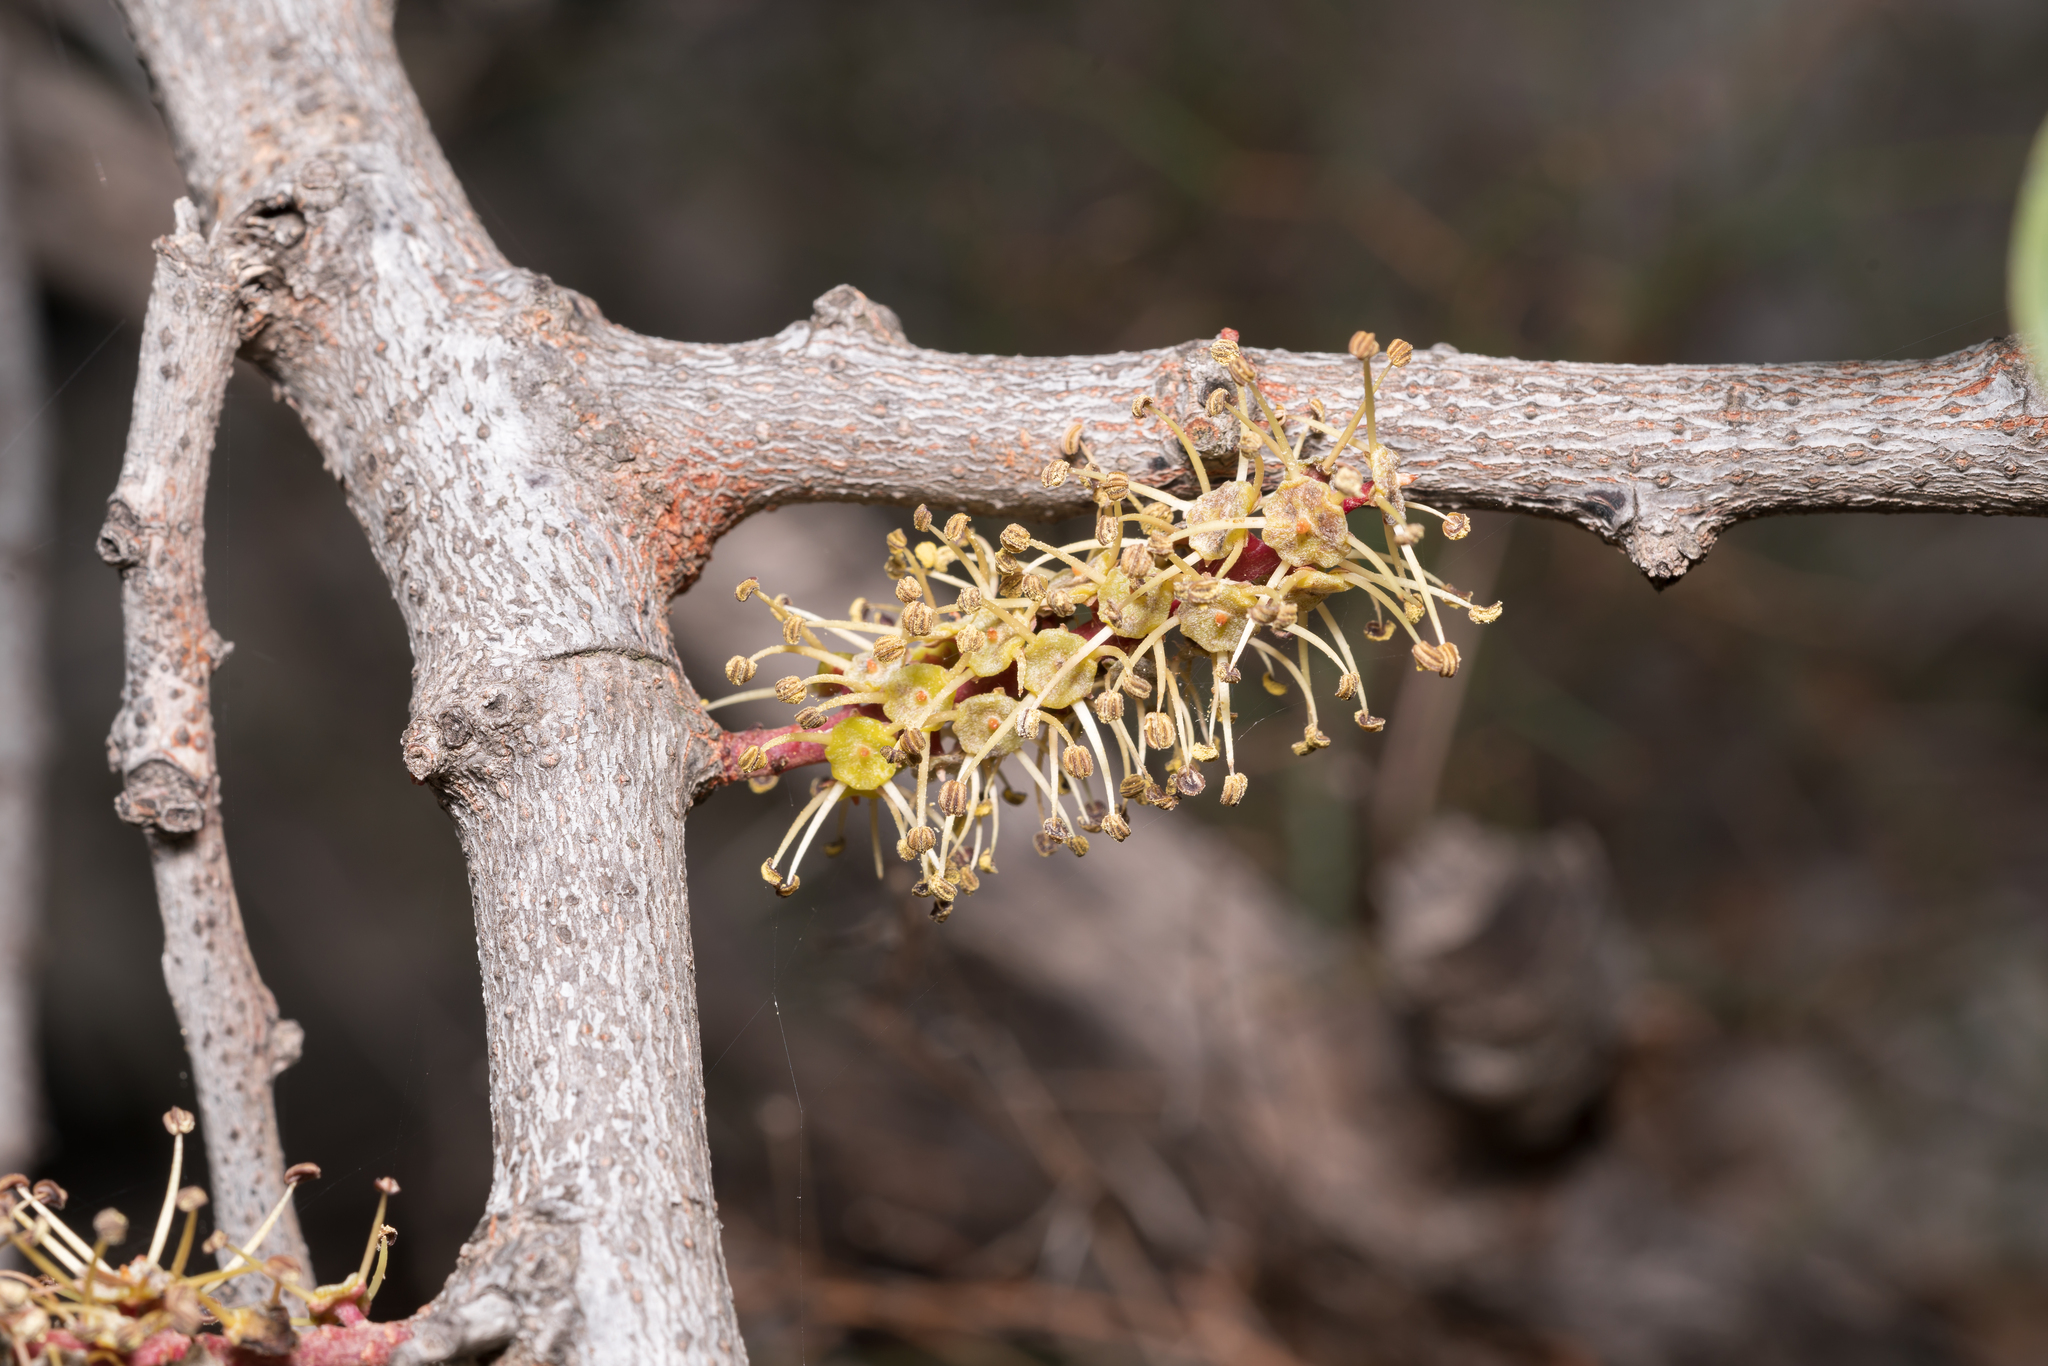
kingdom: Plantae
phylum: Tracheophyta
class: Magnoliopsida
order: Fabales
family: Fabaceae
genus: Ceratonia
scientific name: Ceratonia siliqua
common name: Carob
